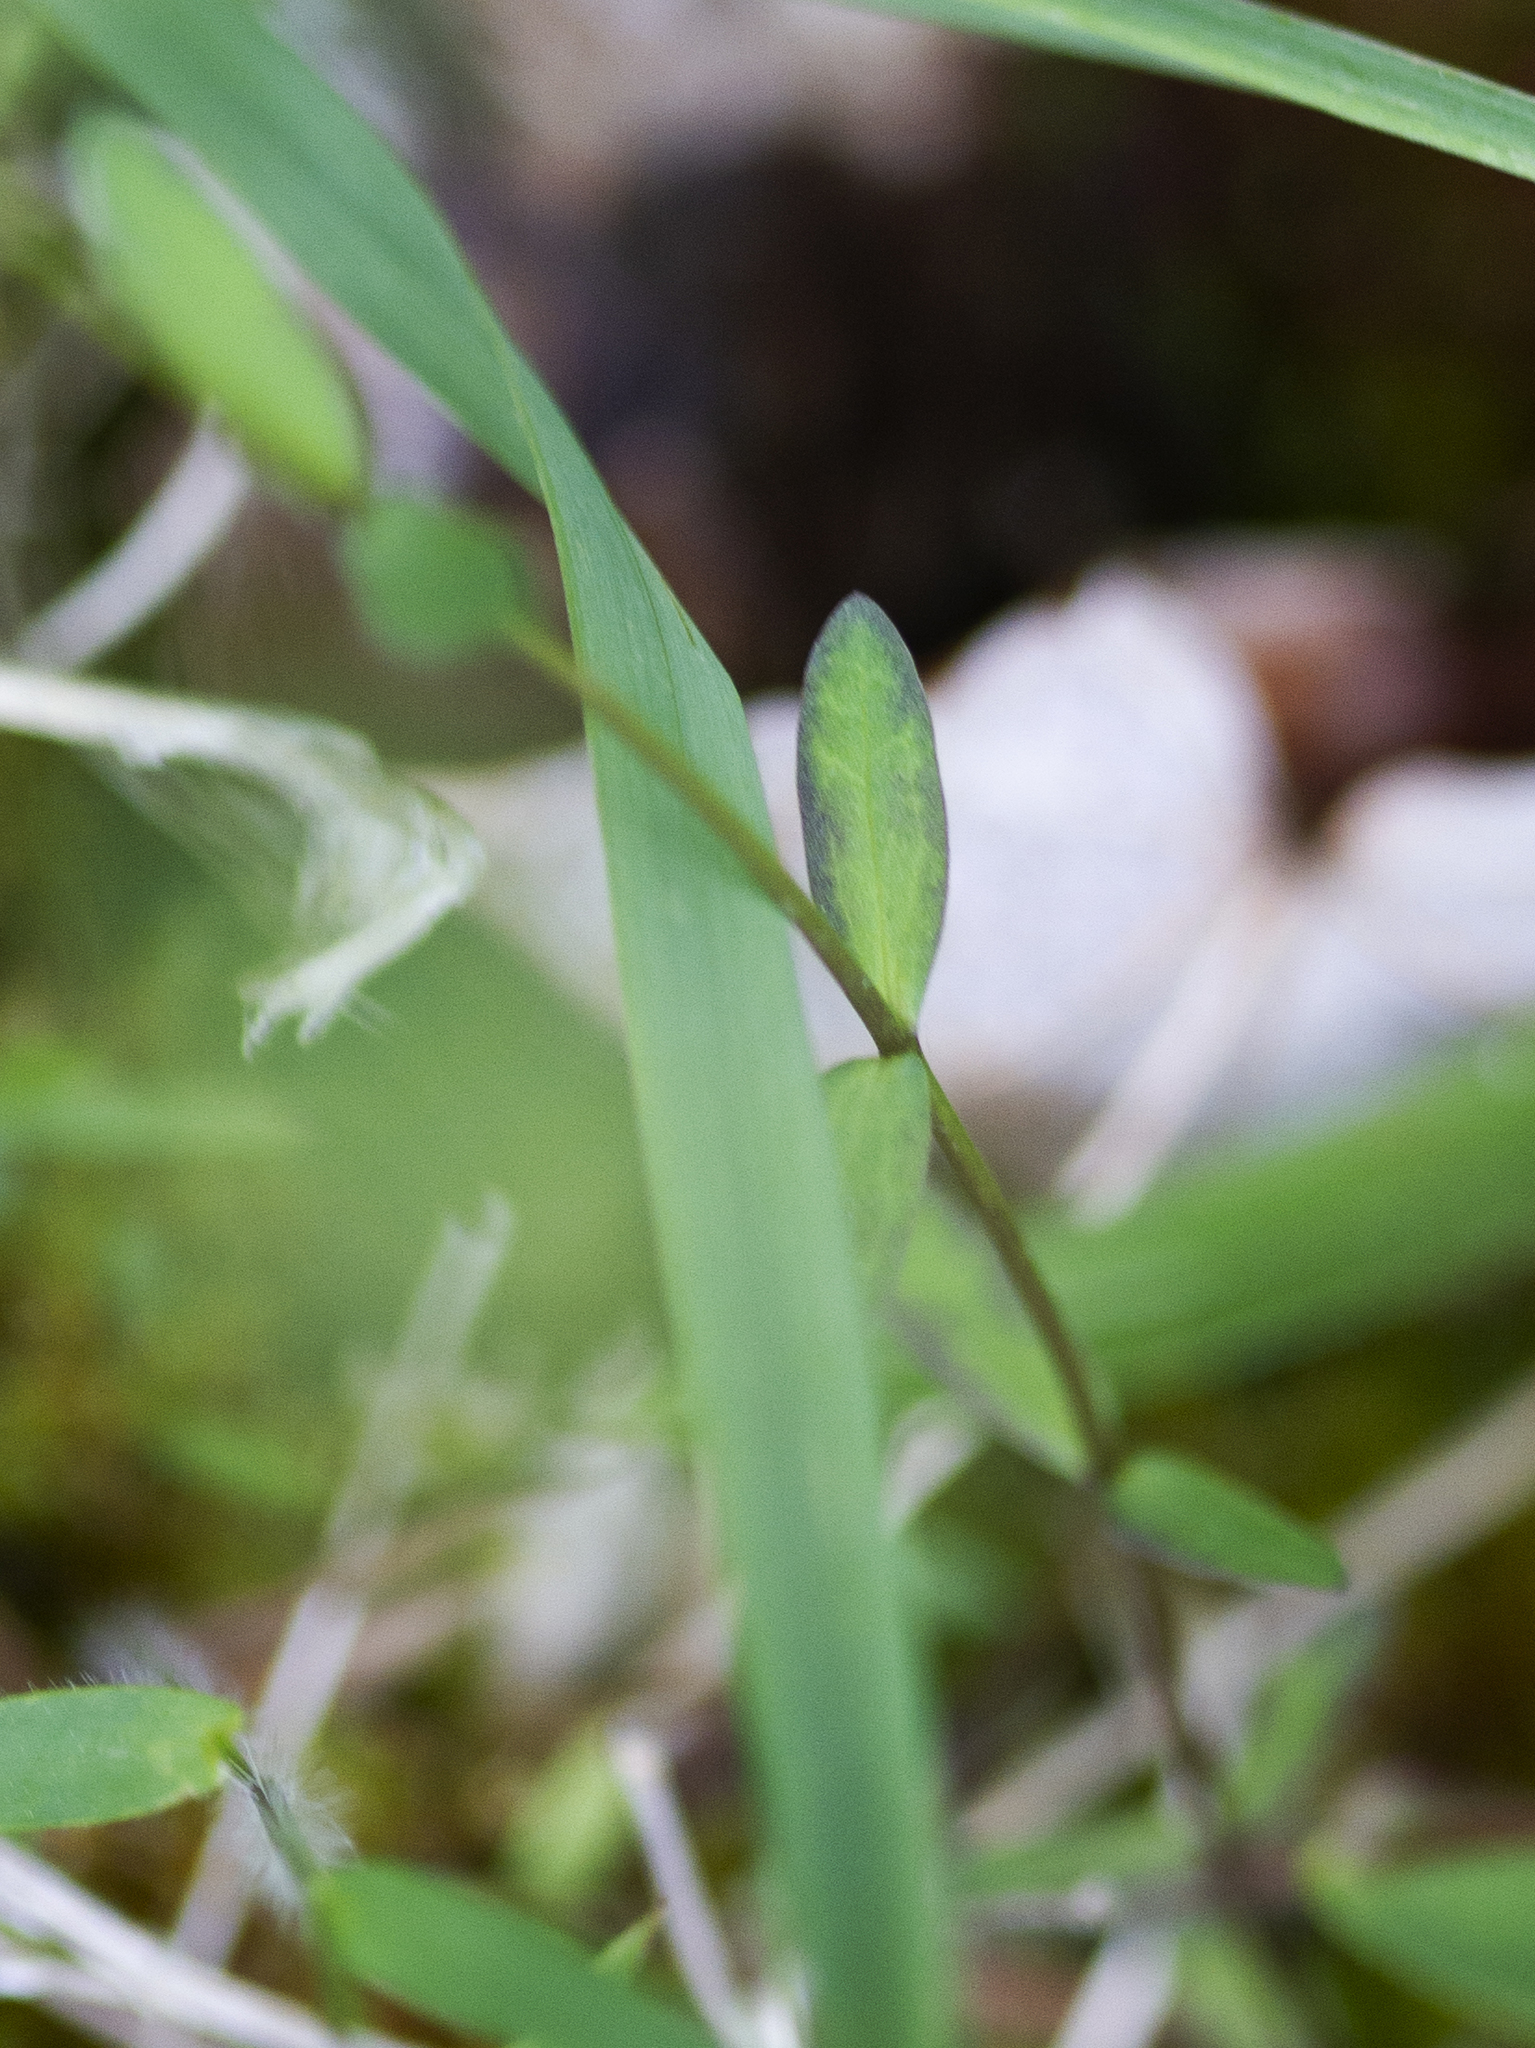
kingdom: Plantae
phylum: Tracheophyta
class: Magnoliopsida
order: Malpighiales
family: Linaceae
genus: Linum
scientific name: Linum catharticum
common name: Fairy flax
